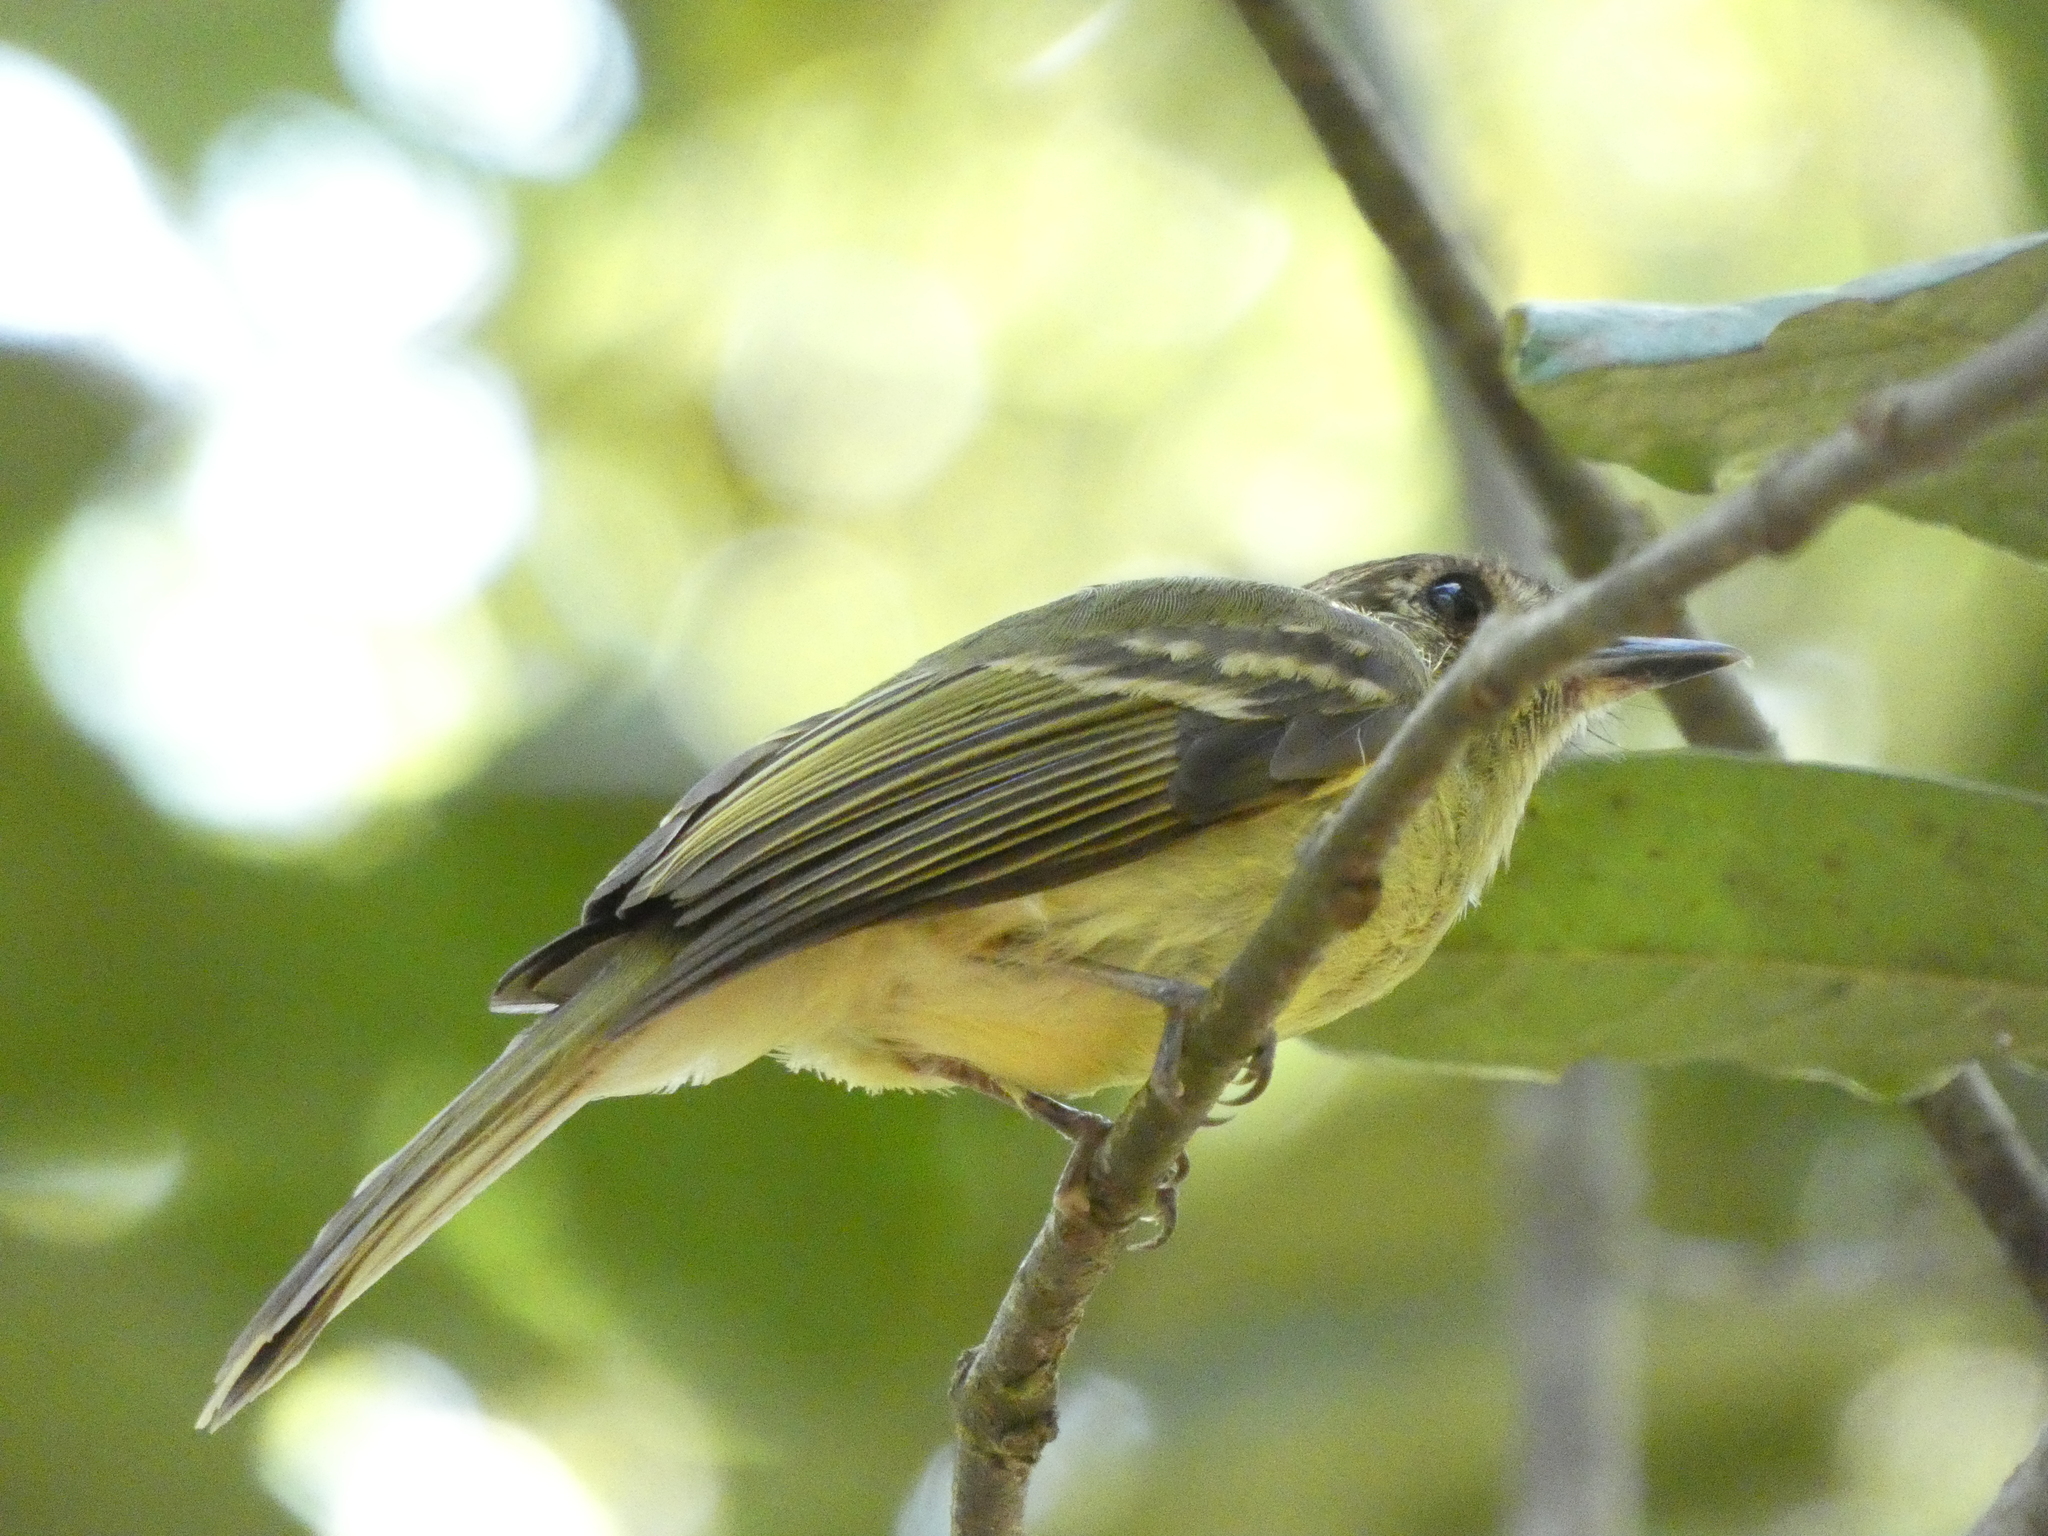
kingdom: Animalia
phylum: Chordata
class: Aves
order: Passeriformes
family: Tyrannidae
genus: Leptopogon
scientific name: Leptopogon amaurocephalus
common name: Sepia-capped flycatcher
